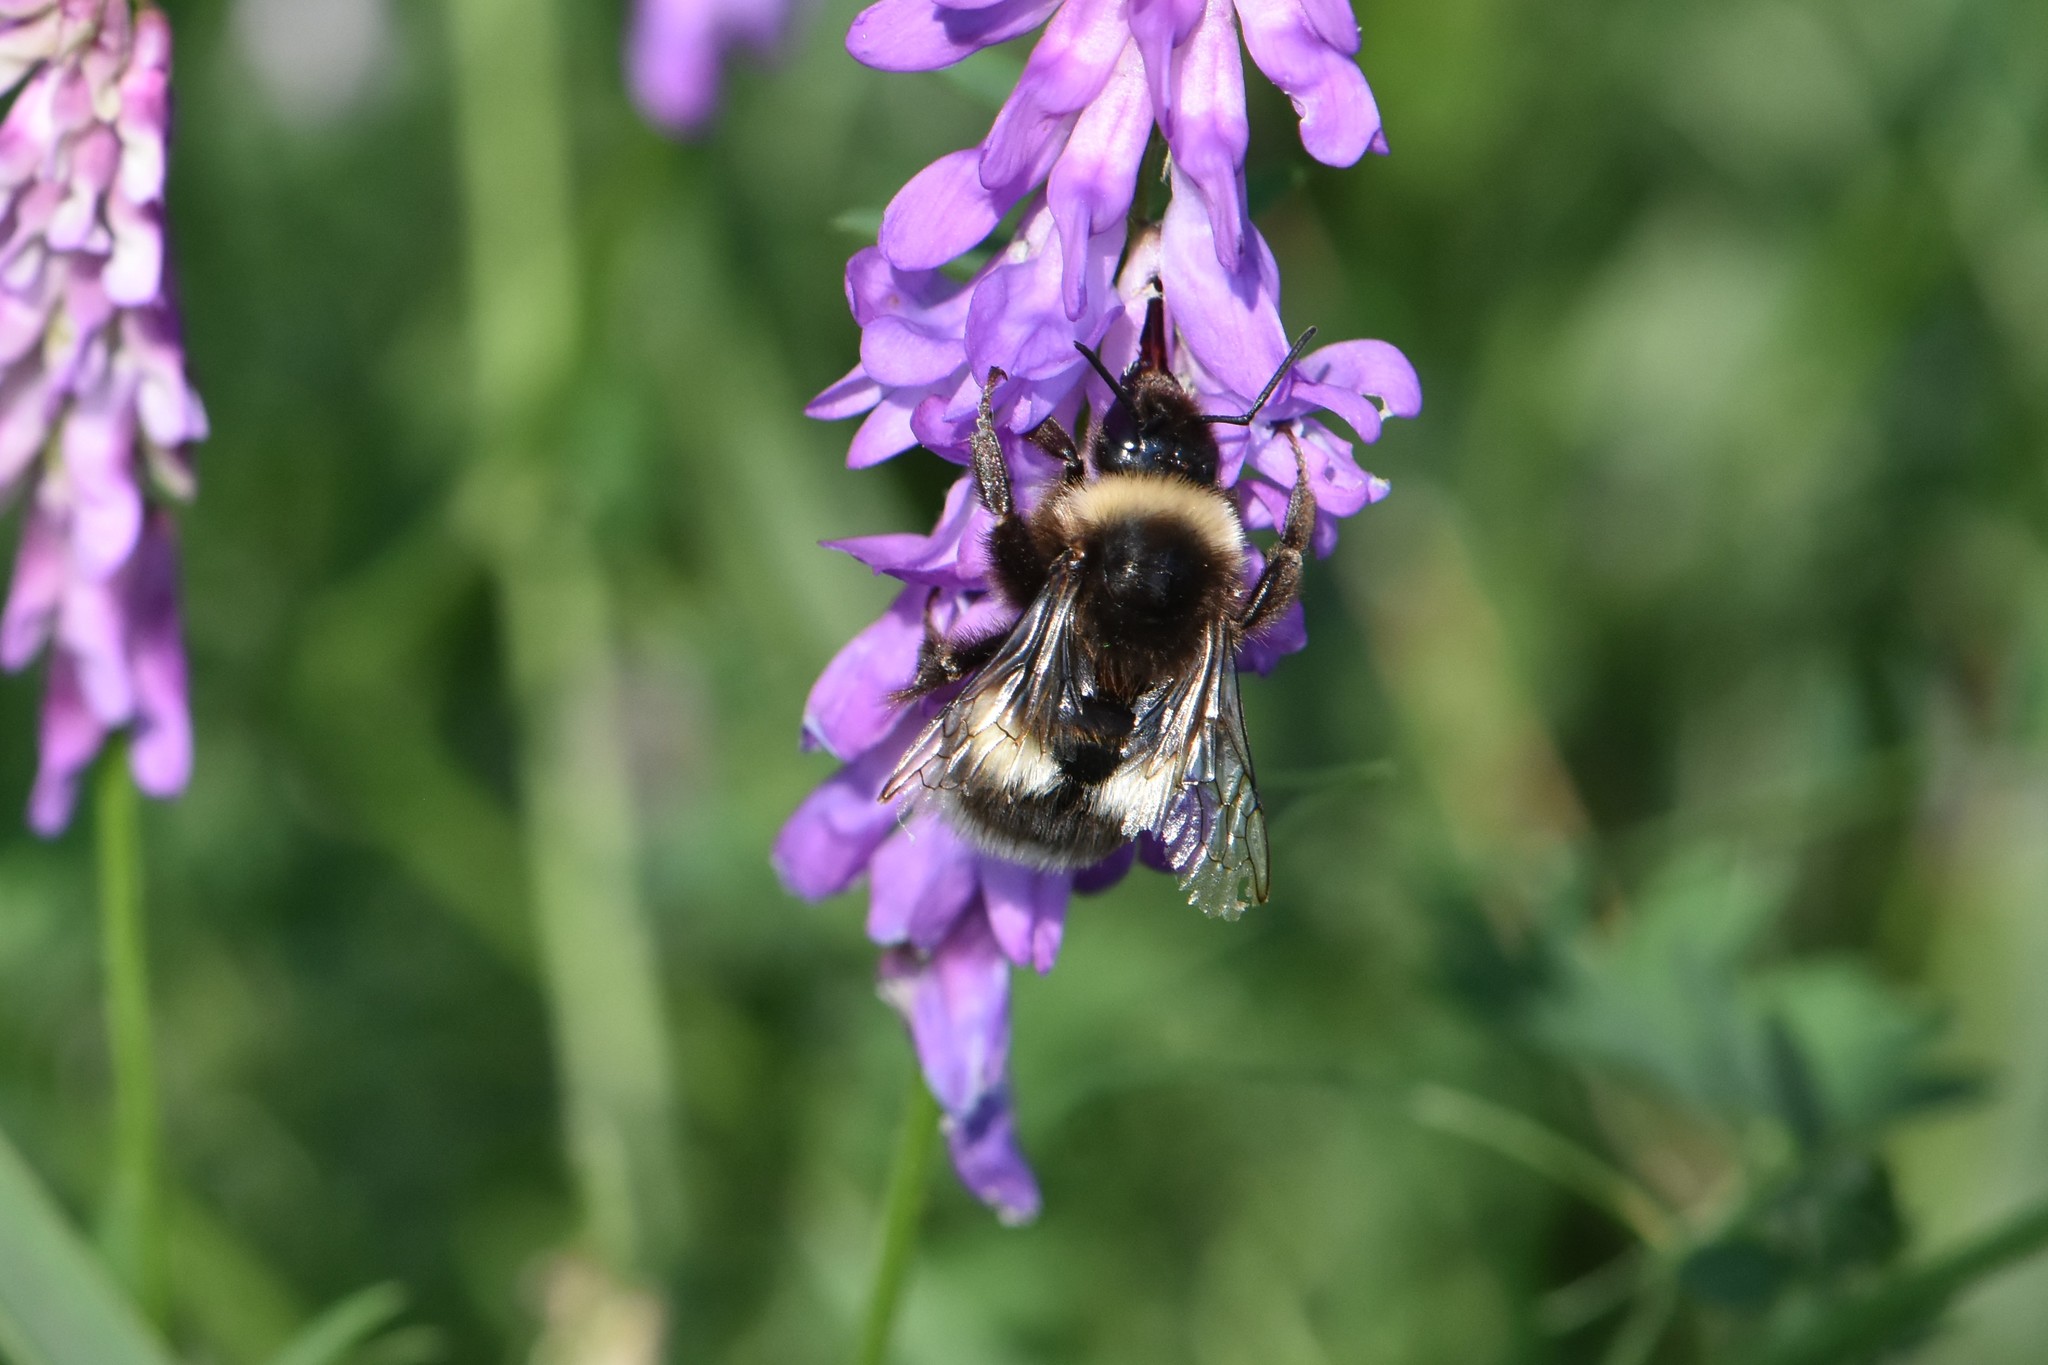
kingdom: Animalia
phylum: Arthropoda
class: Insecta
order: Hymenoptera
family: Apidae
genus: Bombus
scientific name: Bombus
